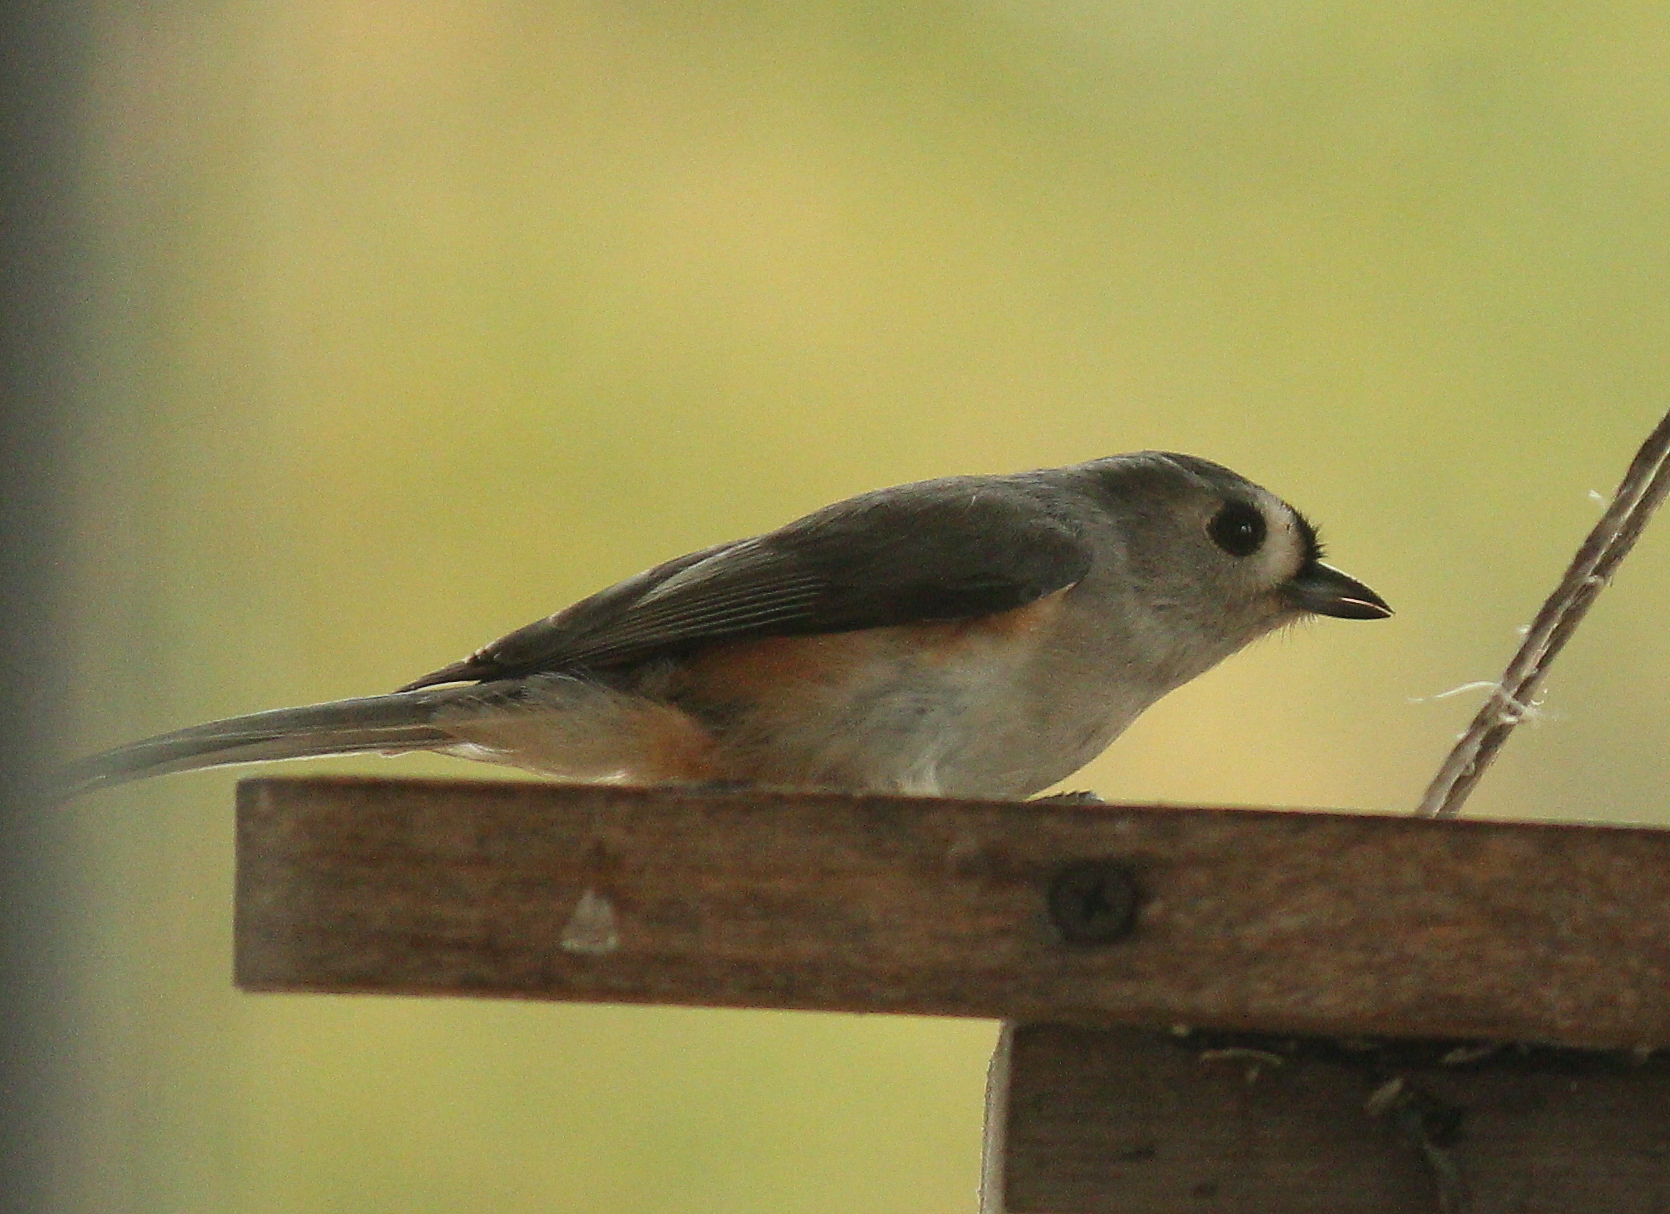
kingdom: Animalia
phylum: Chordata
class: Aves
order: Passeriformes
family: Paridae
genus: Baeolophus
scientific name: Baeolophus bicolor
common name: Tufted titmouse
